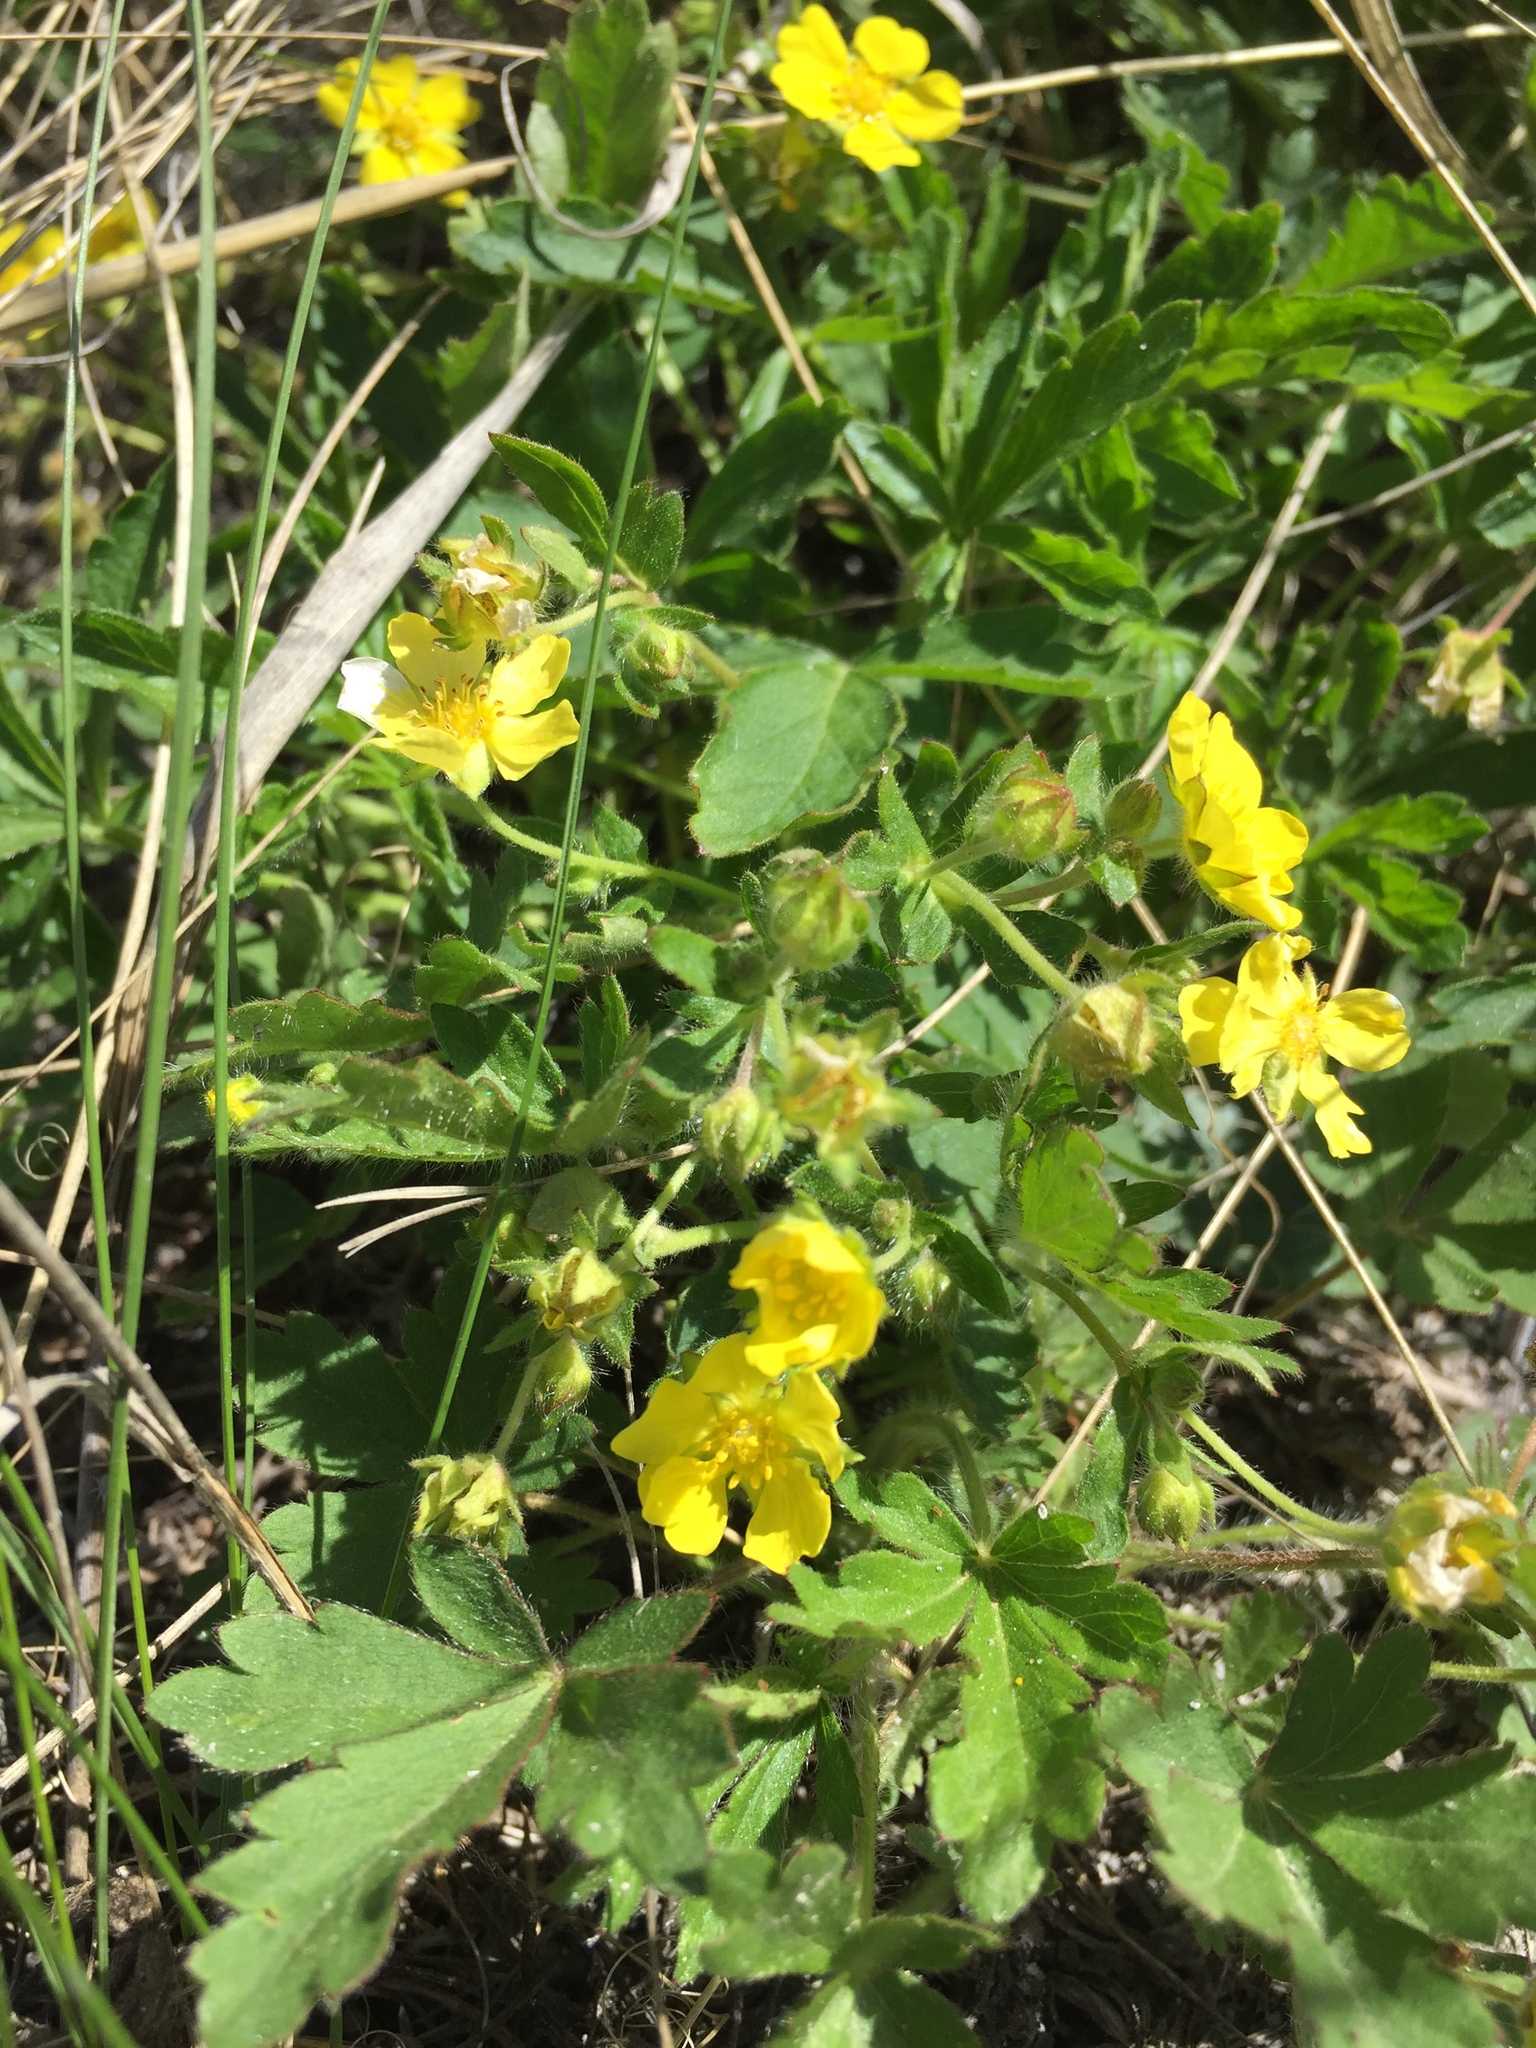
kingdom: Plantae
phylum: Tracheophyta
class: Magnoliopsida
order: Rosales
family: Rosaceae
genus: Potentilla
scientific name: Potentilla humifusa
